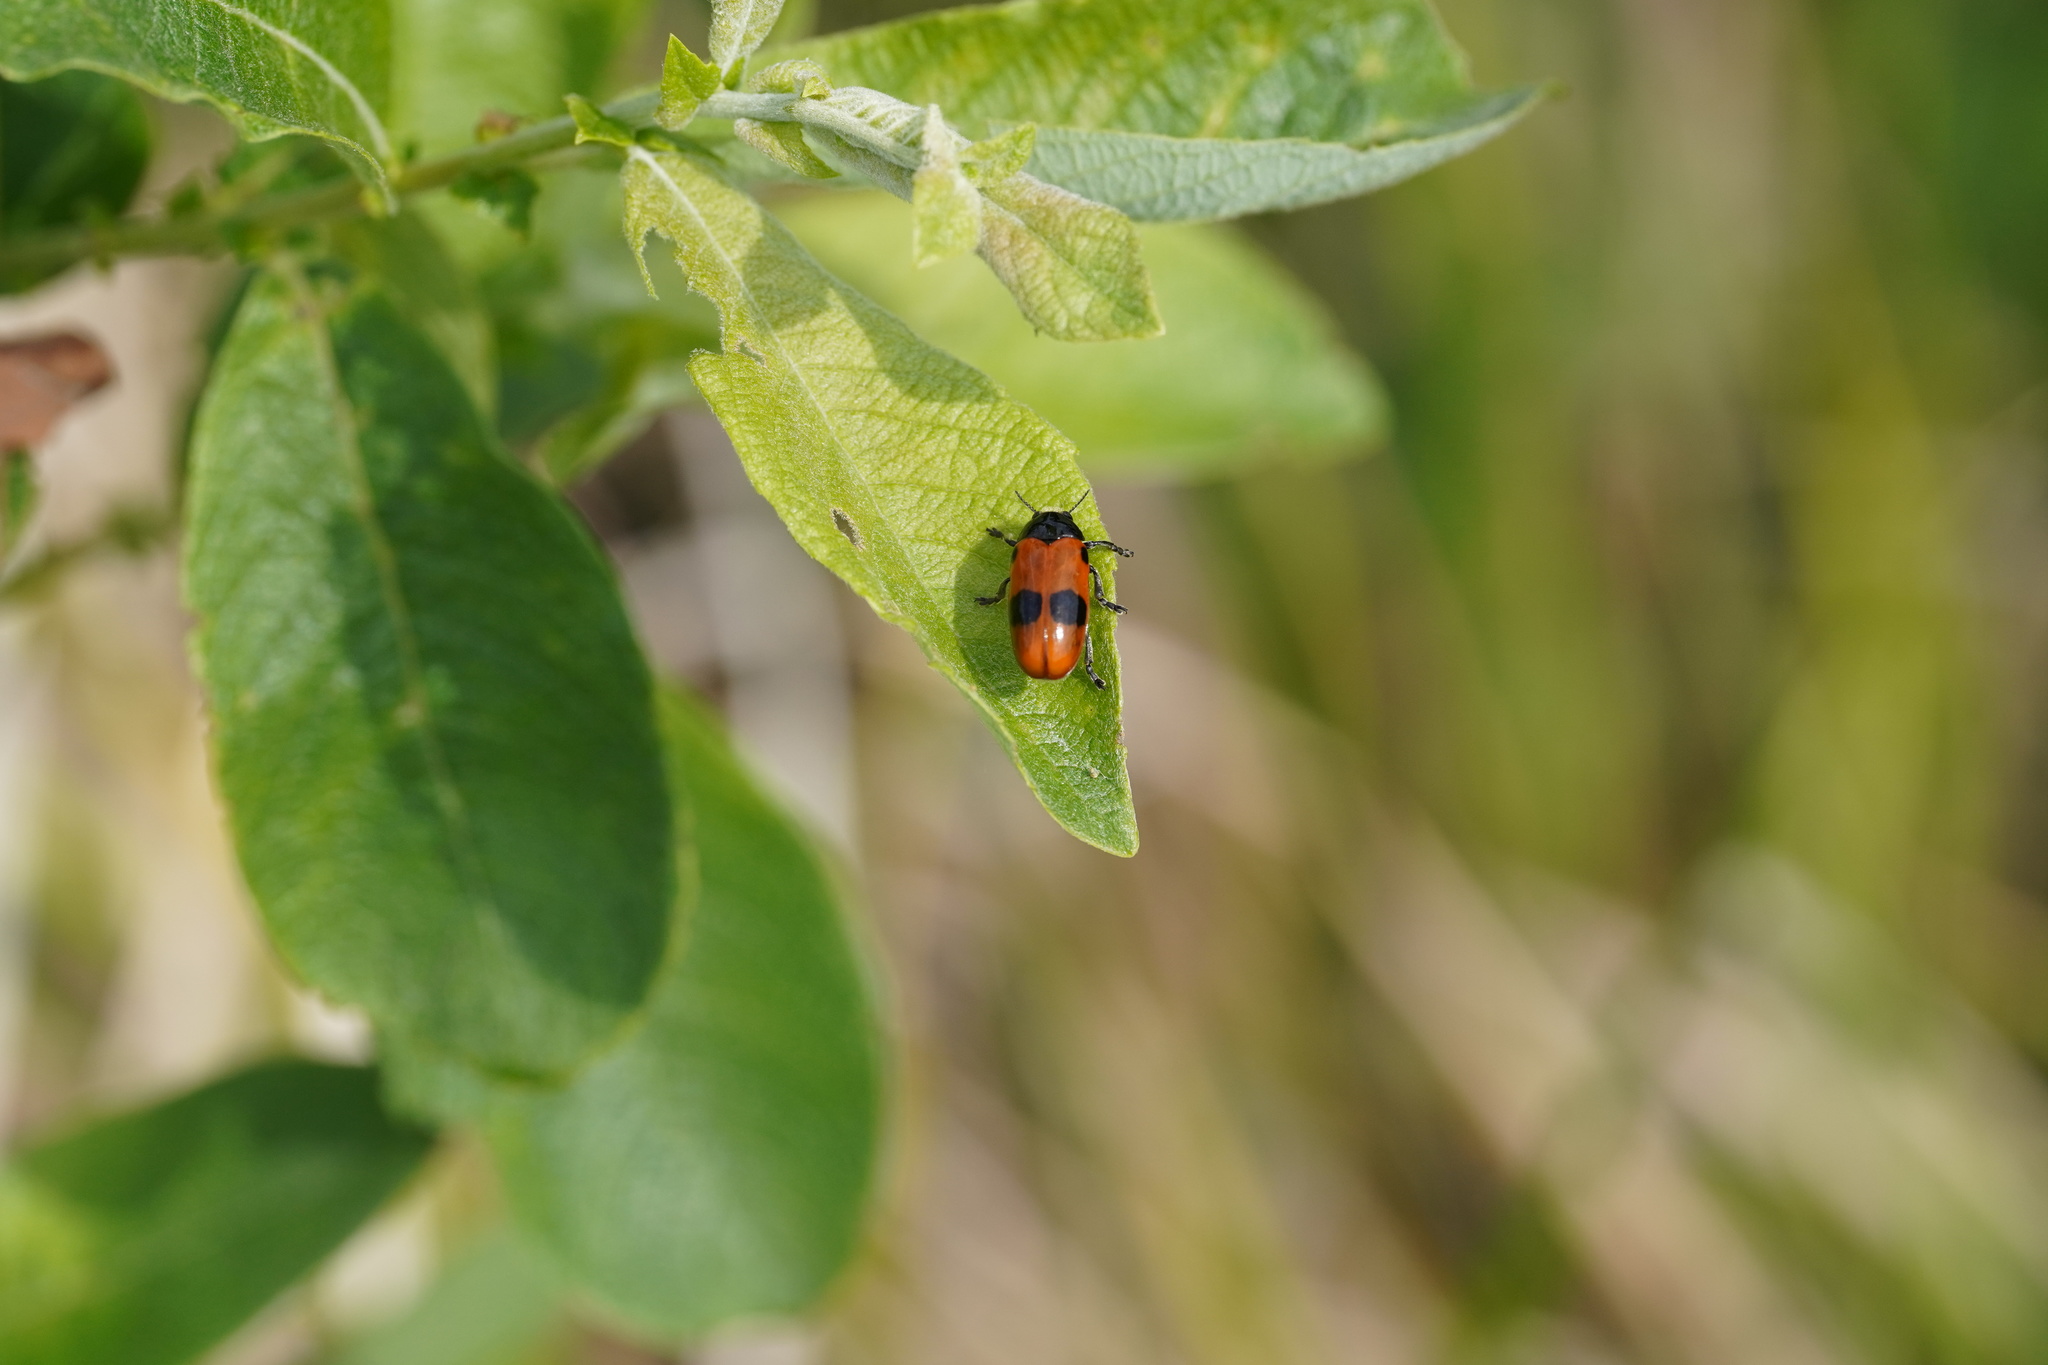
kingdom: Animalia
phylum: Arthropoda
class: Insecta
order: Coleoptera
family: Chrysomelidae
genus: Clytra
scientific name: Clytra laeviuscula
